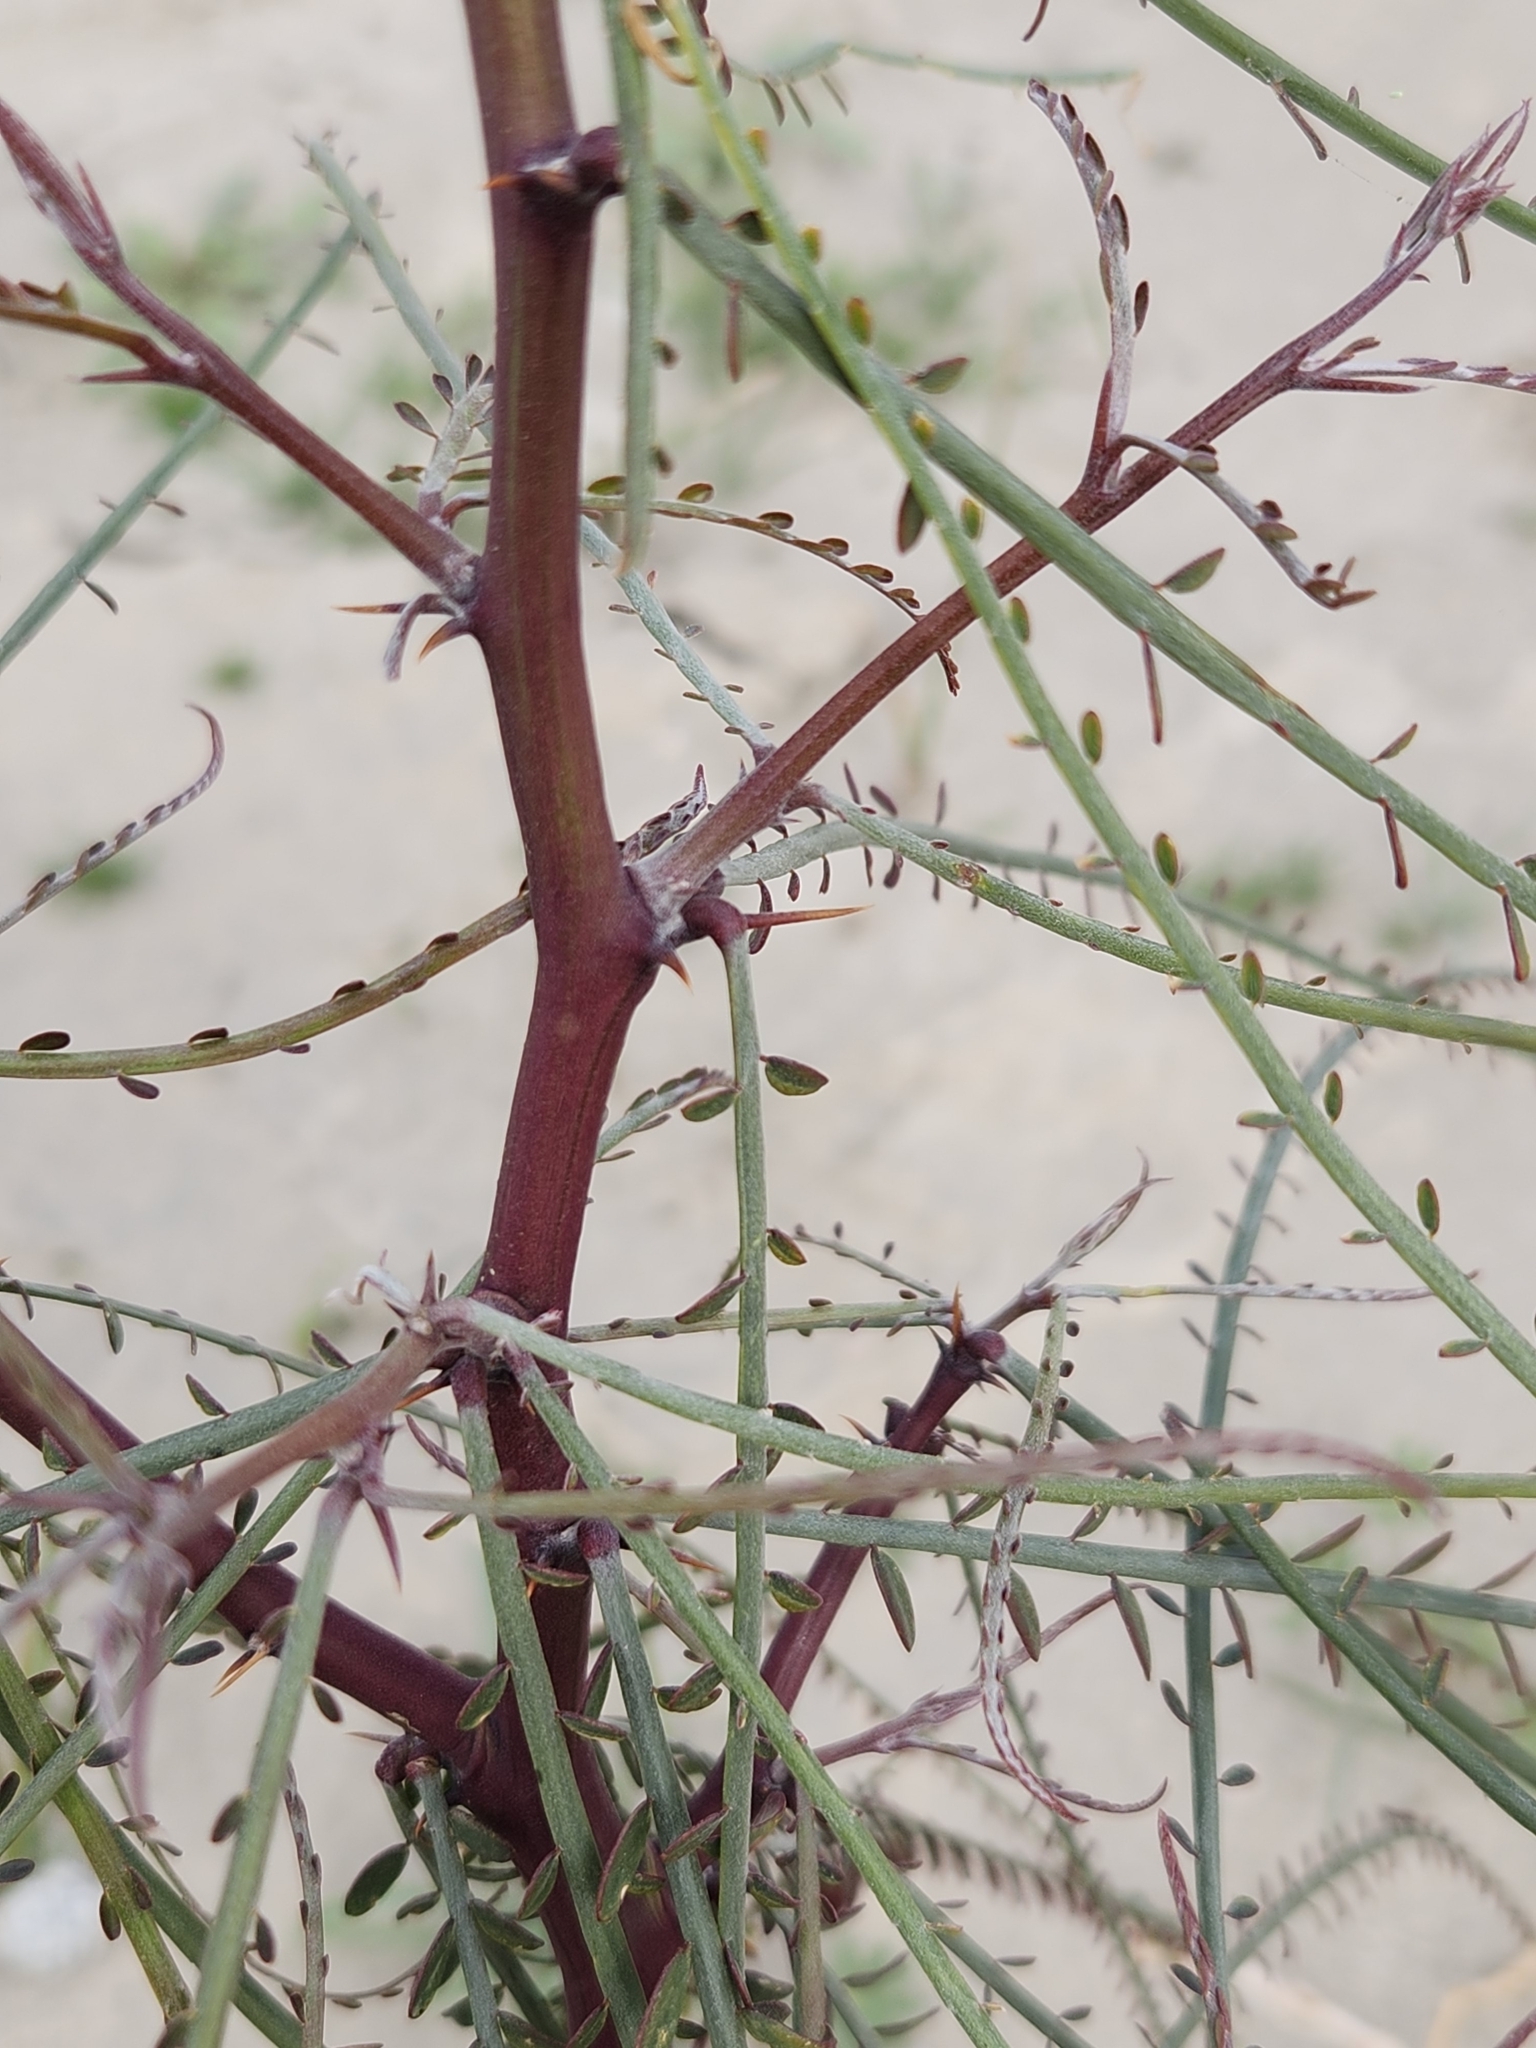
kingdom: Plantae
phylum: Tracheophyta
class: Magnoliopsida
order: Fabales
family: Fabaceae
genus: Parkinsonia
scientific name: Parkinsonia aculeata
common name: Jerusalem thorn
